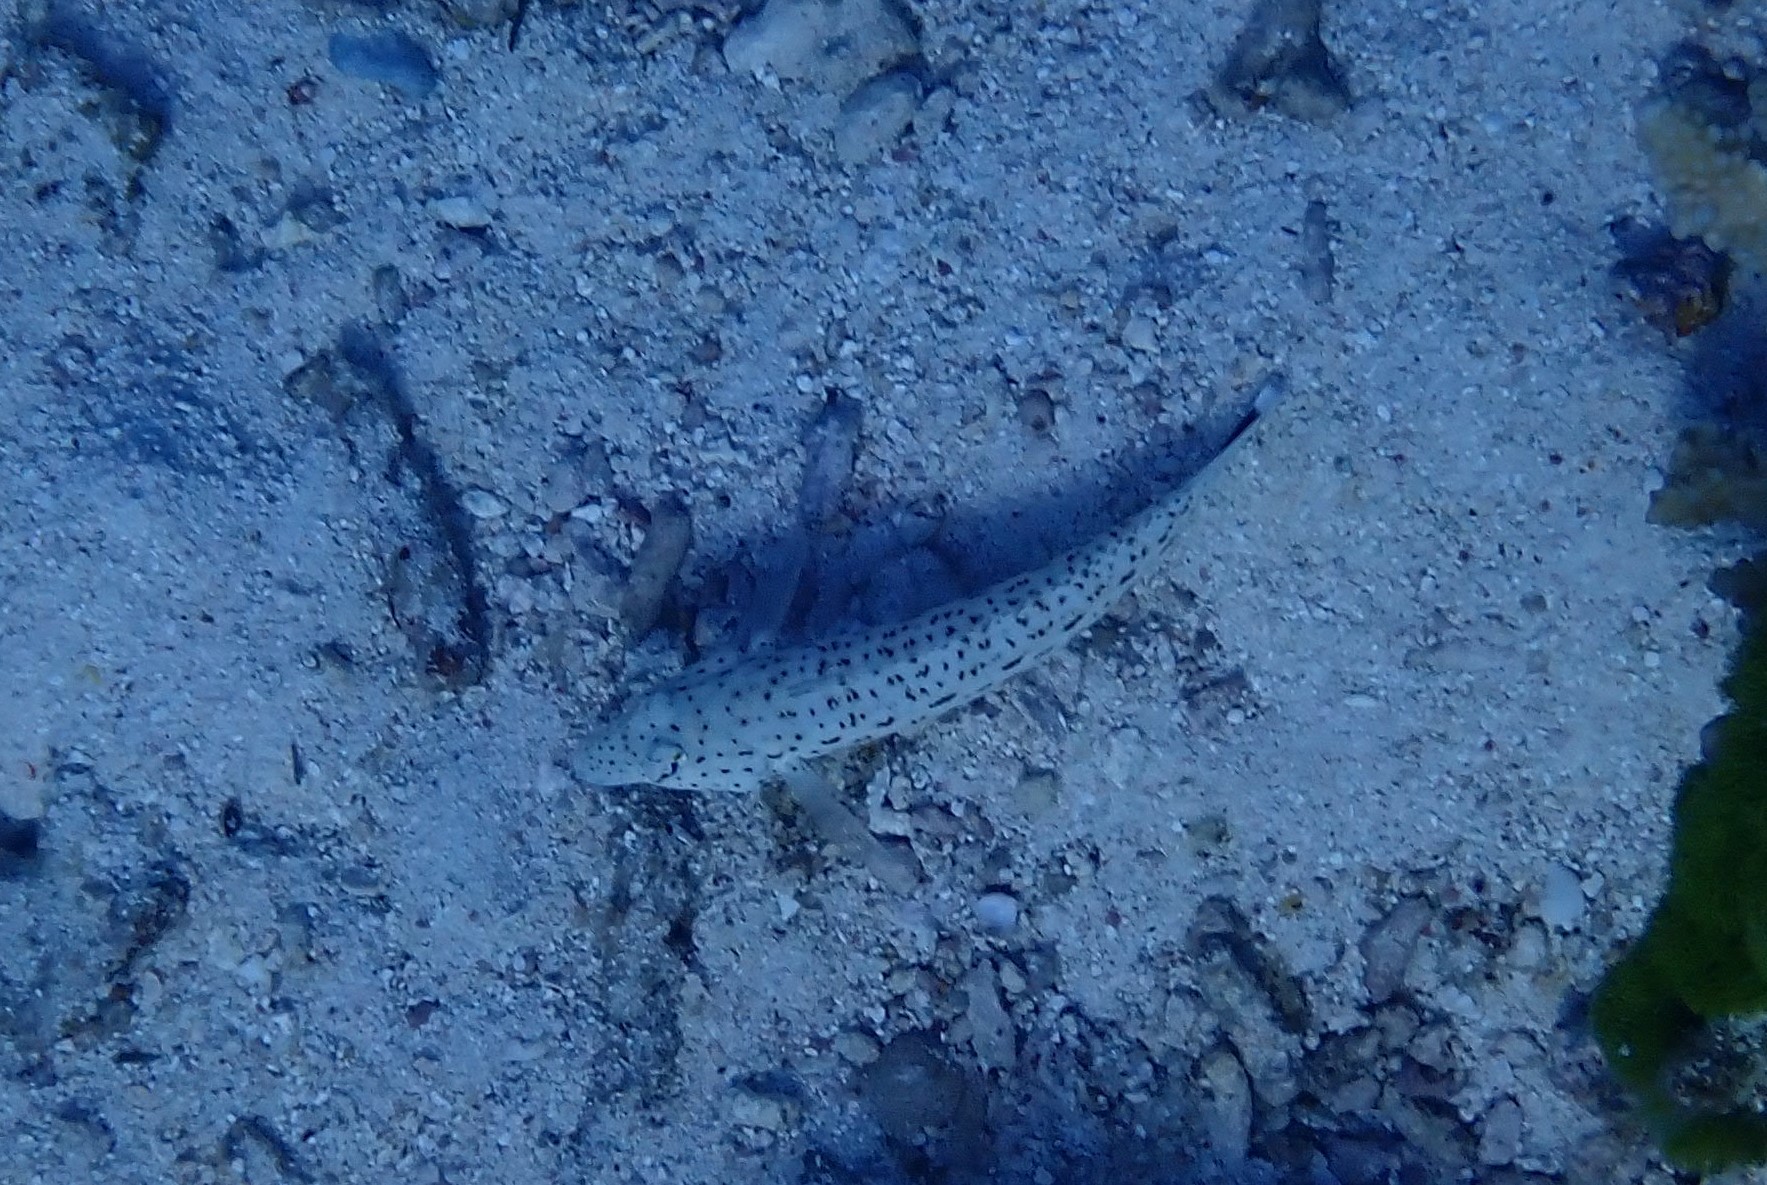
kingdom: Animalia
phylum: Chordata
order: Perciformes
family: Pinguipedidae
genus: Parapercis
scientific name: Parapercis hexophtalma
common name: Speckled sandperch
